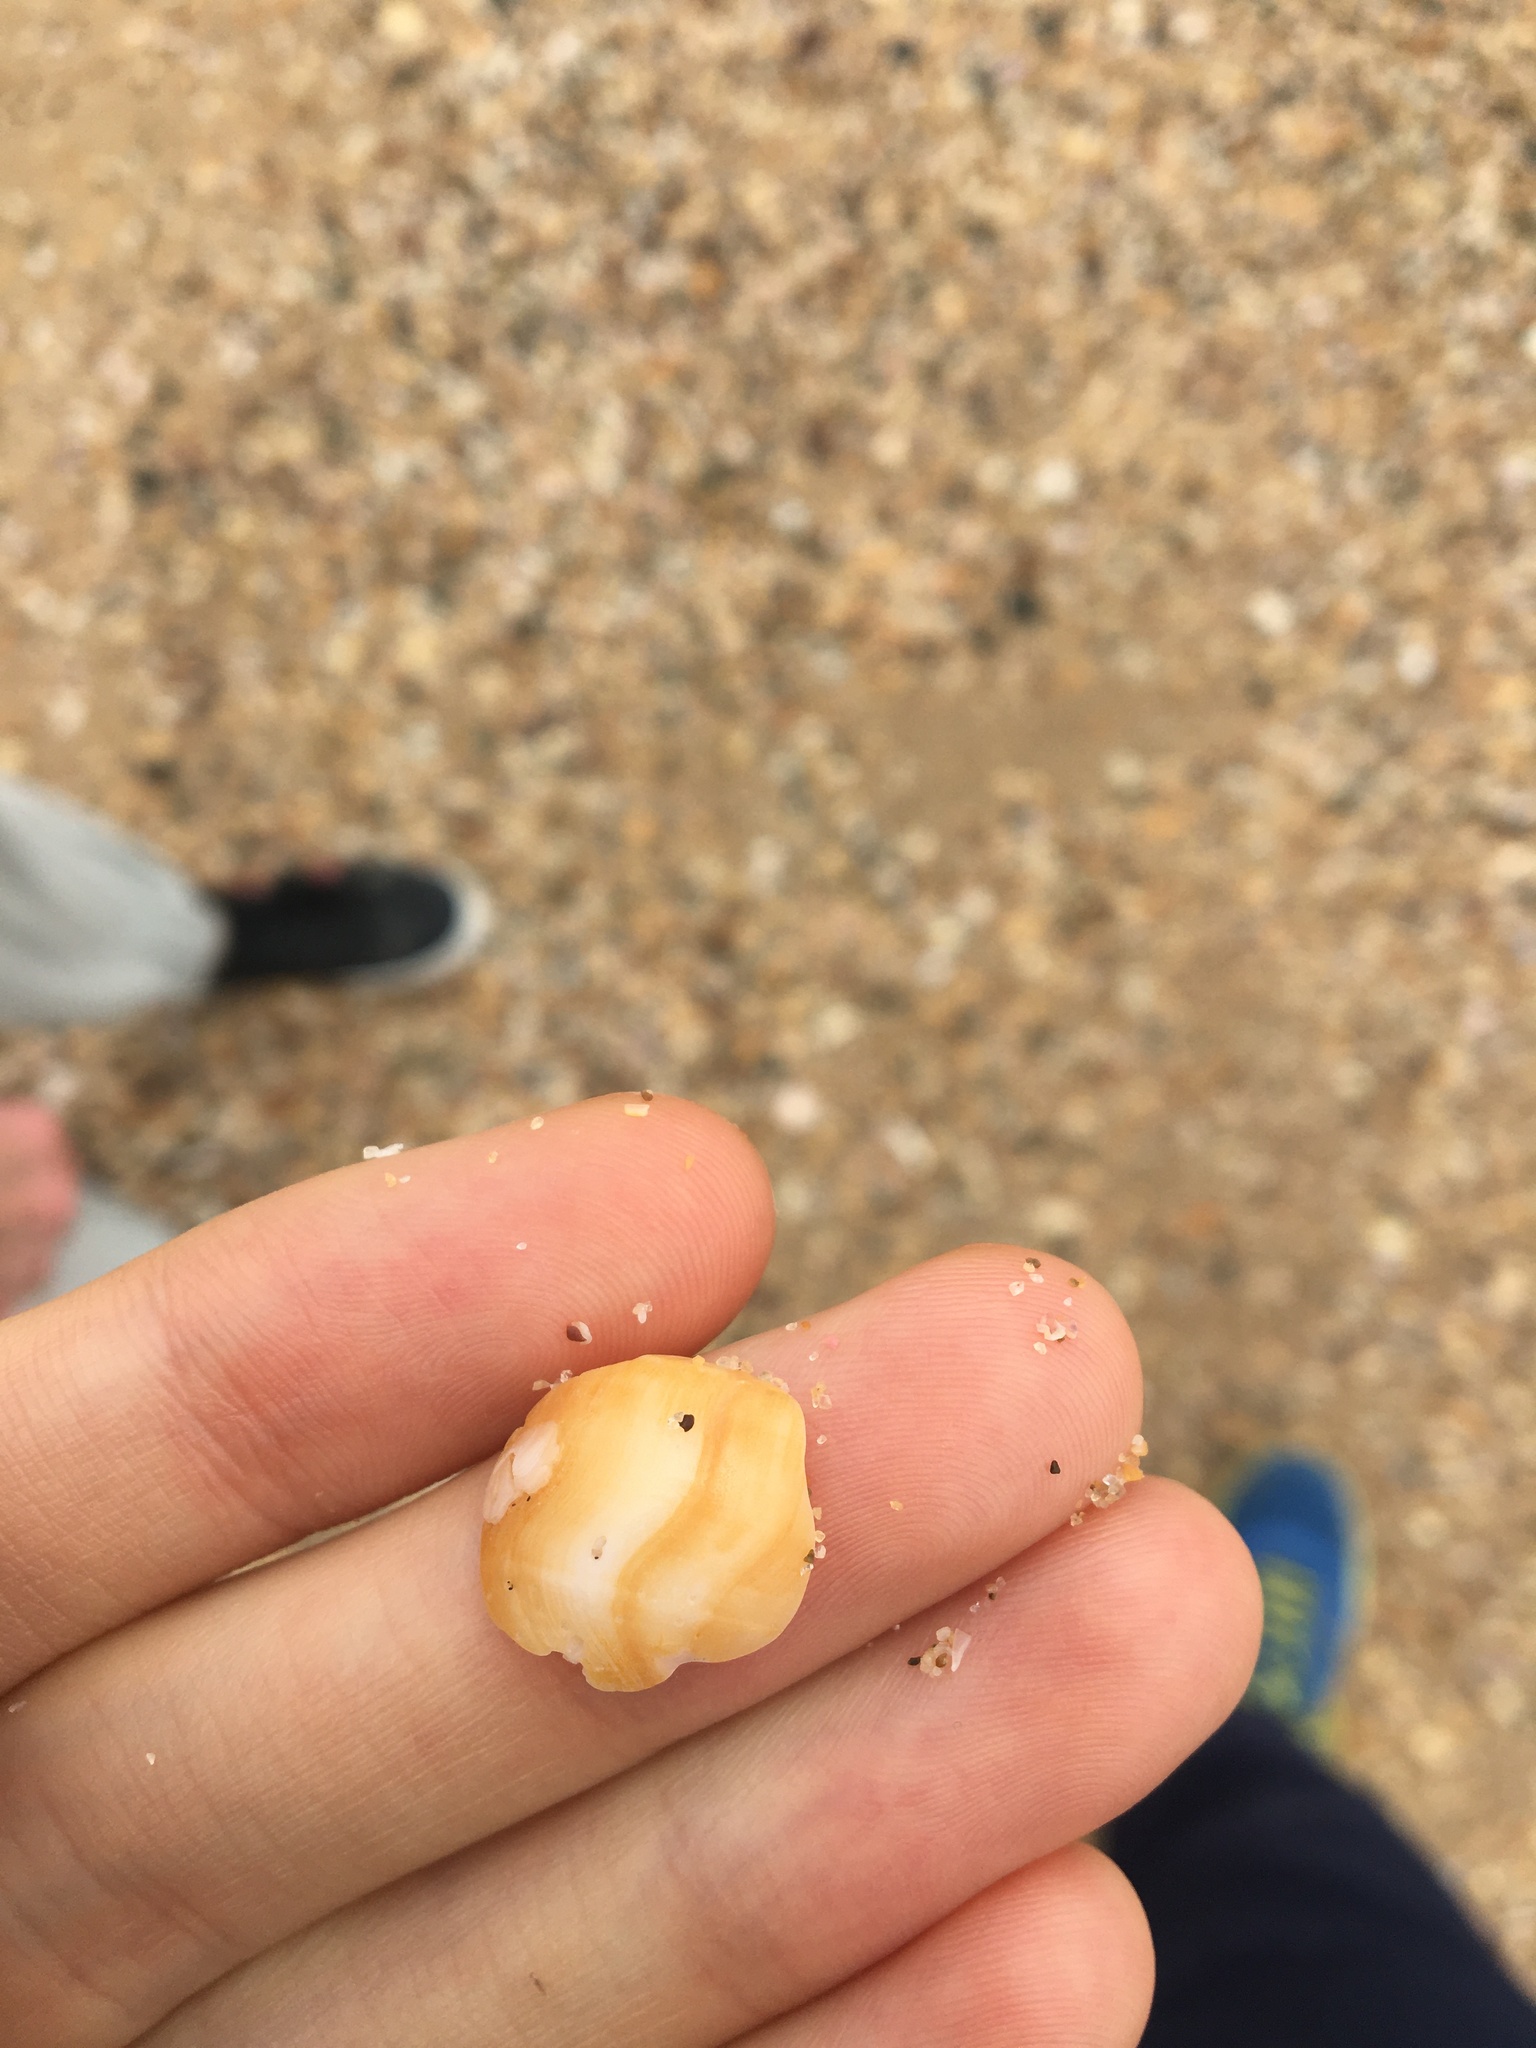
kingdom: Animalia
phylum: Mollusca
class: Gastropoda
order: Littorinimorpha
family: Struthiolariidae
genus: Tylospira
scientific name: Tylospira scutulata
